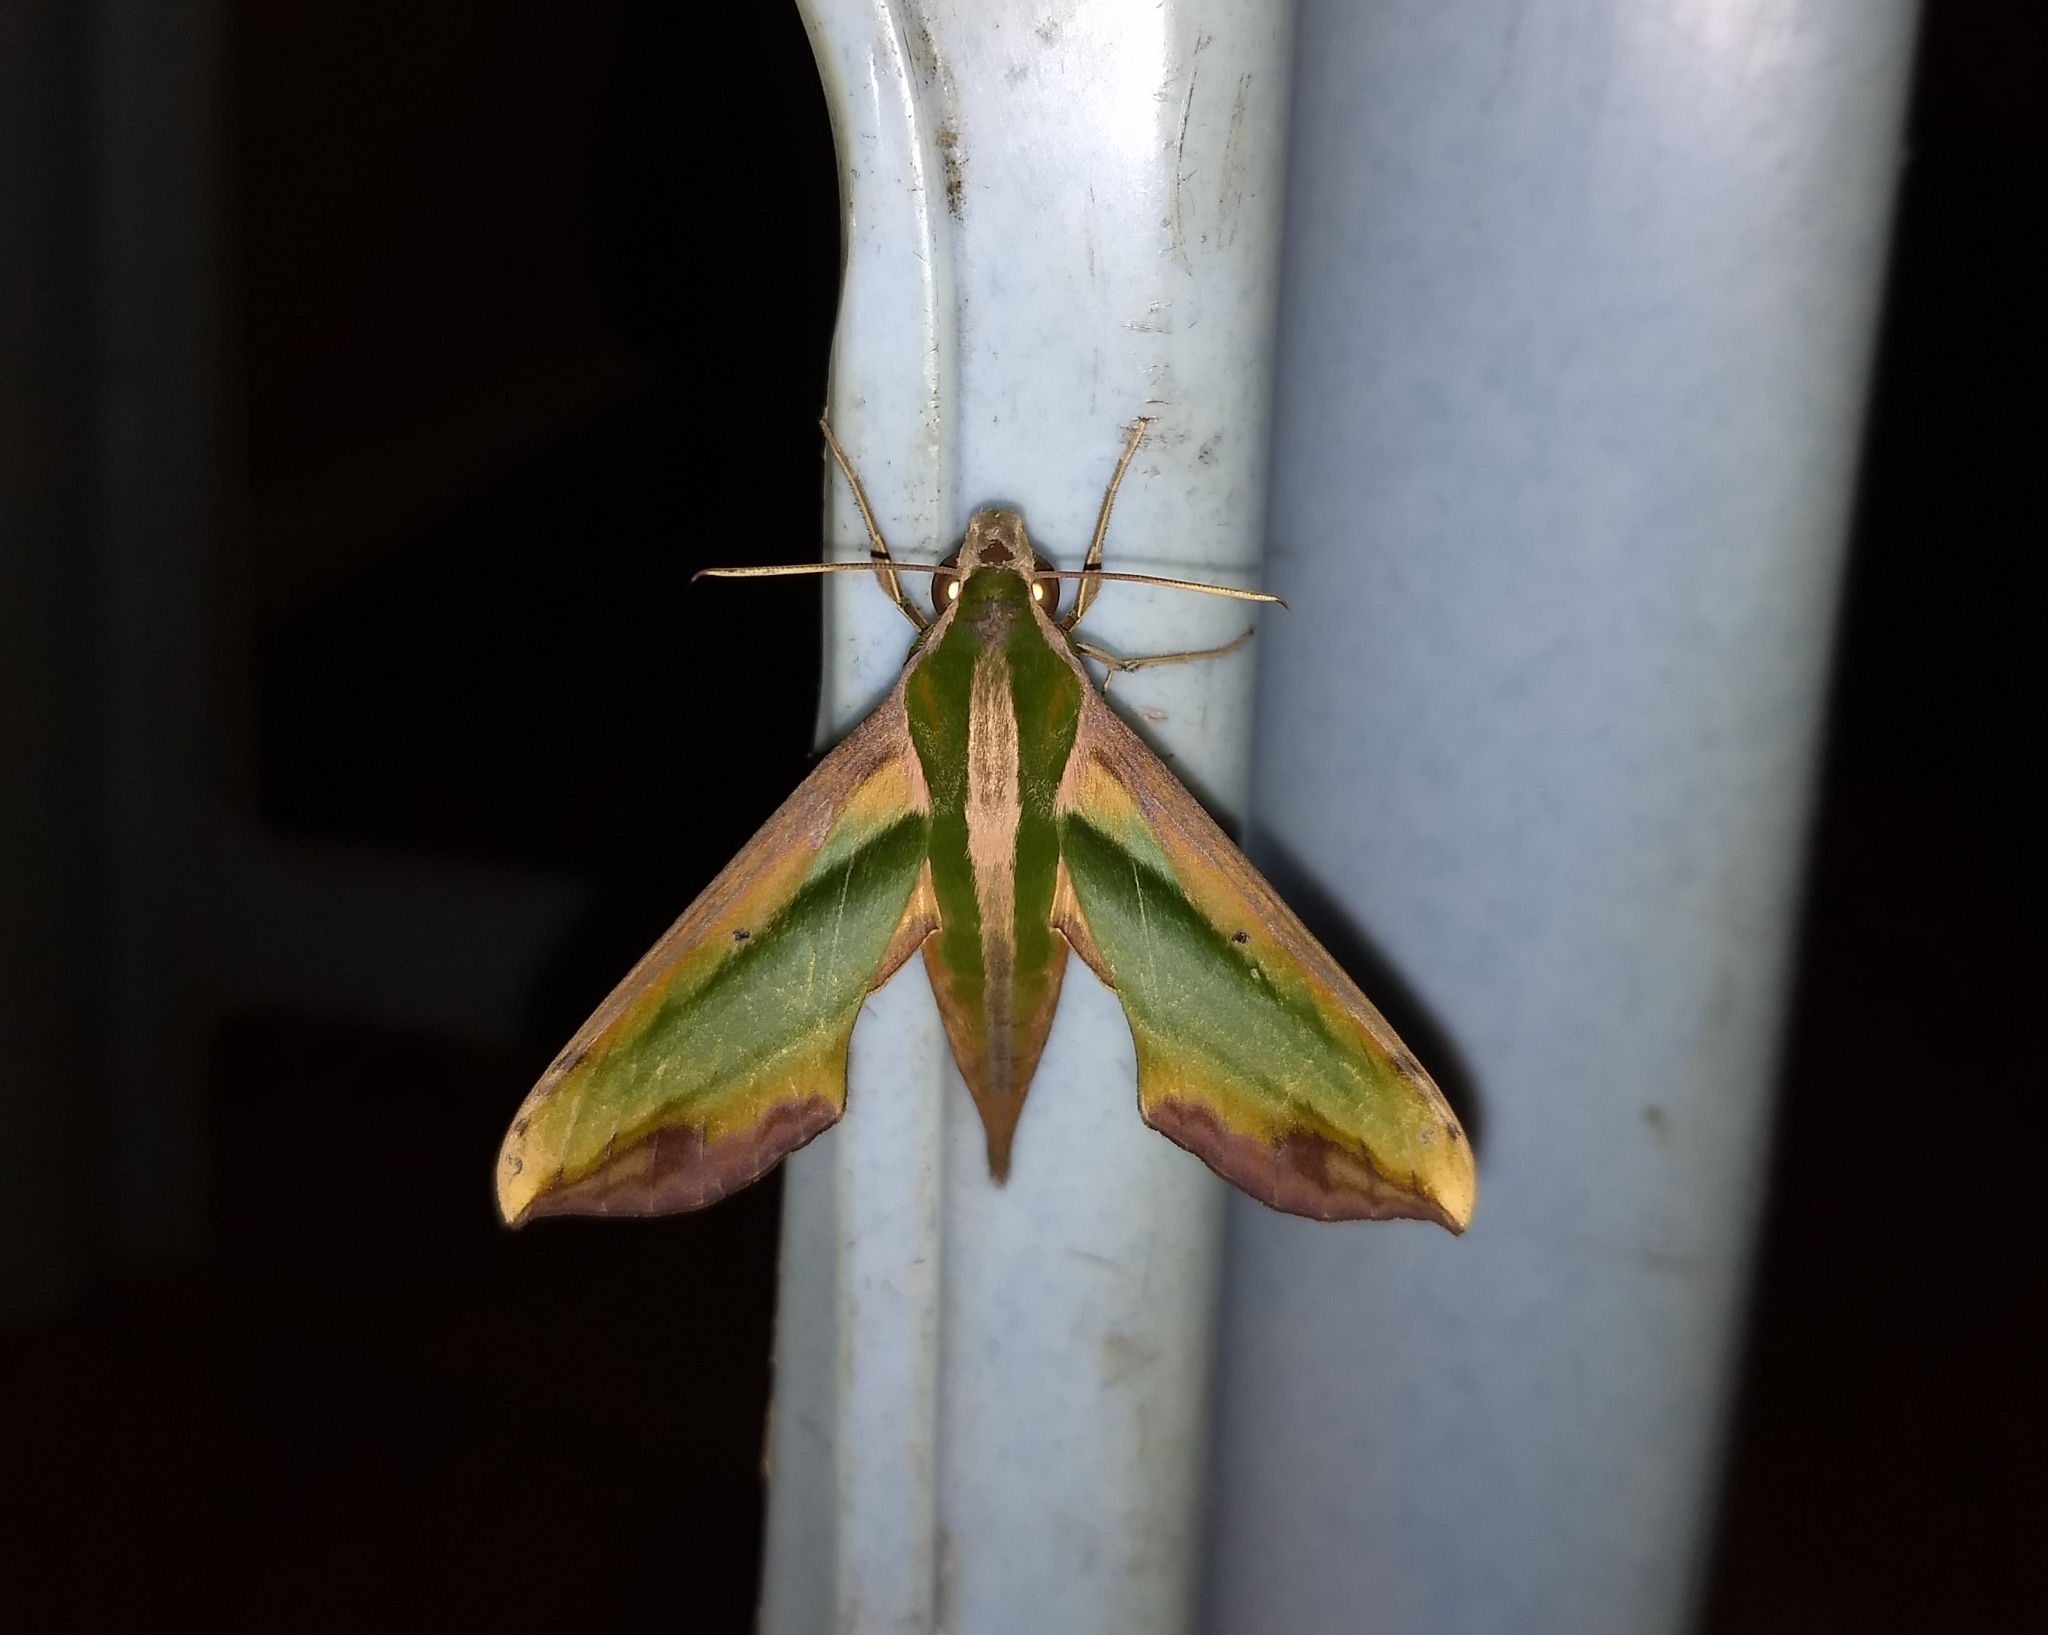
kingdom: Animalia
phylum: Arthropoda
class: Insecta
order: Lepidoptera
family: Sphingidae
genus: Pergesa
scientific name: Pergesa acteus
